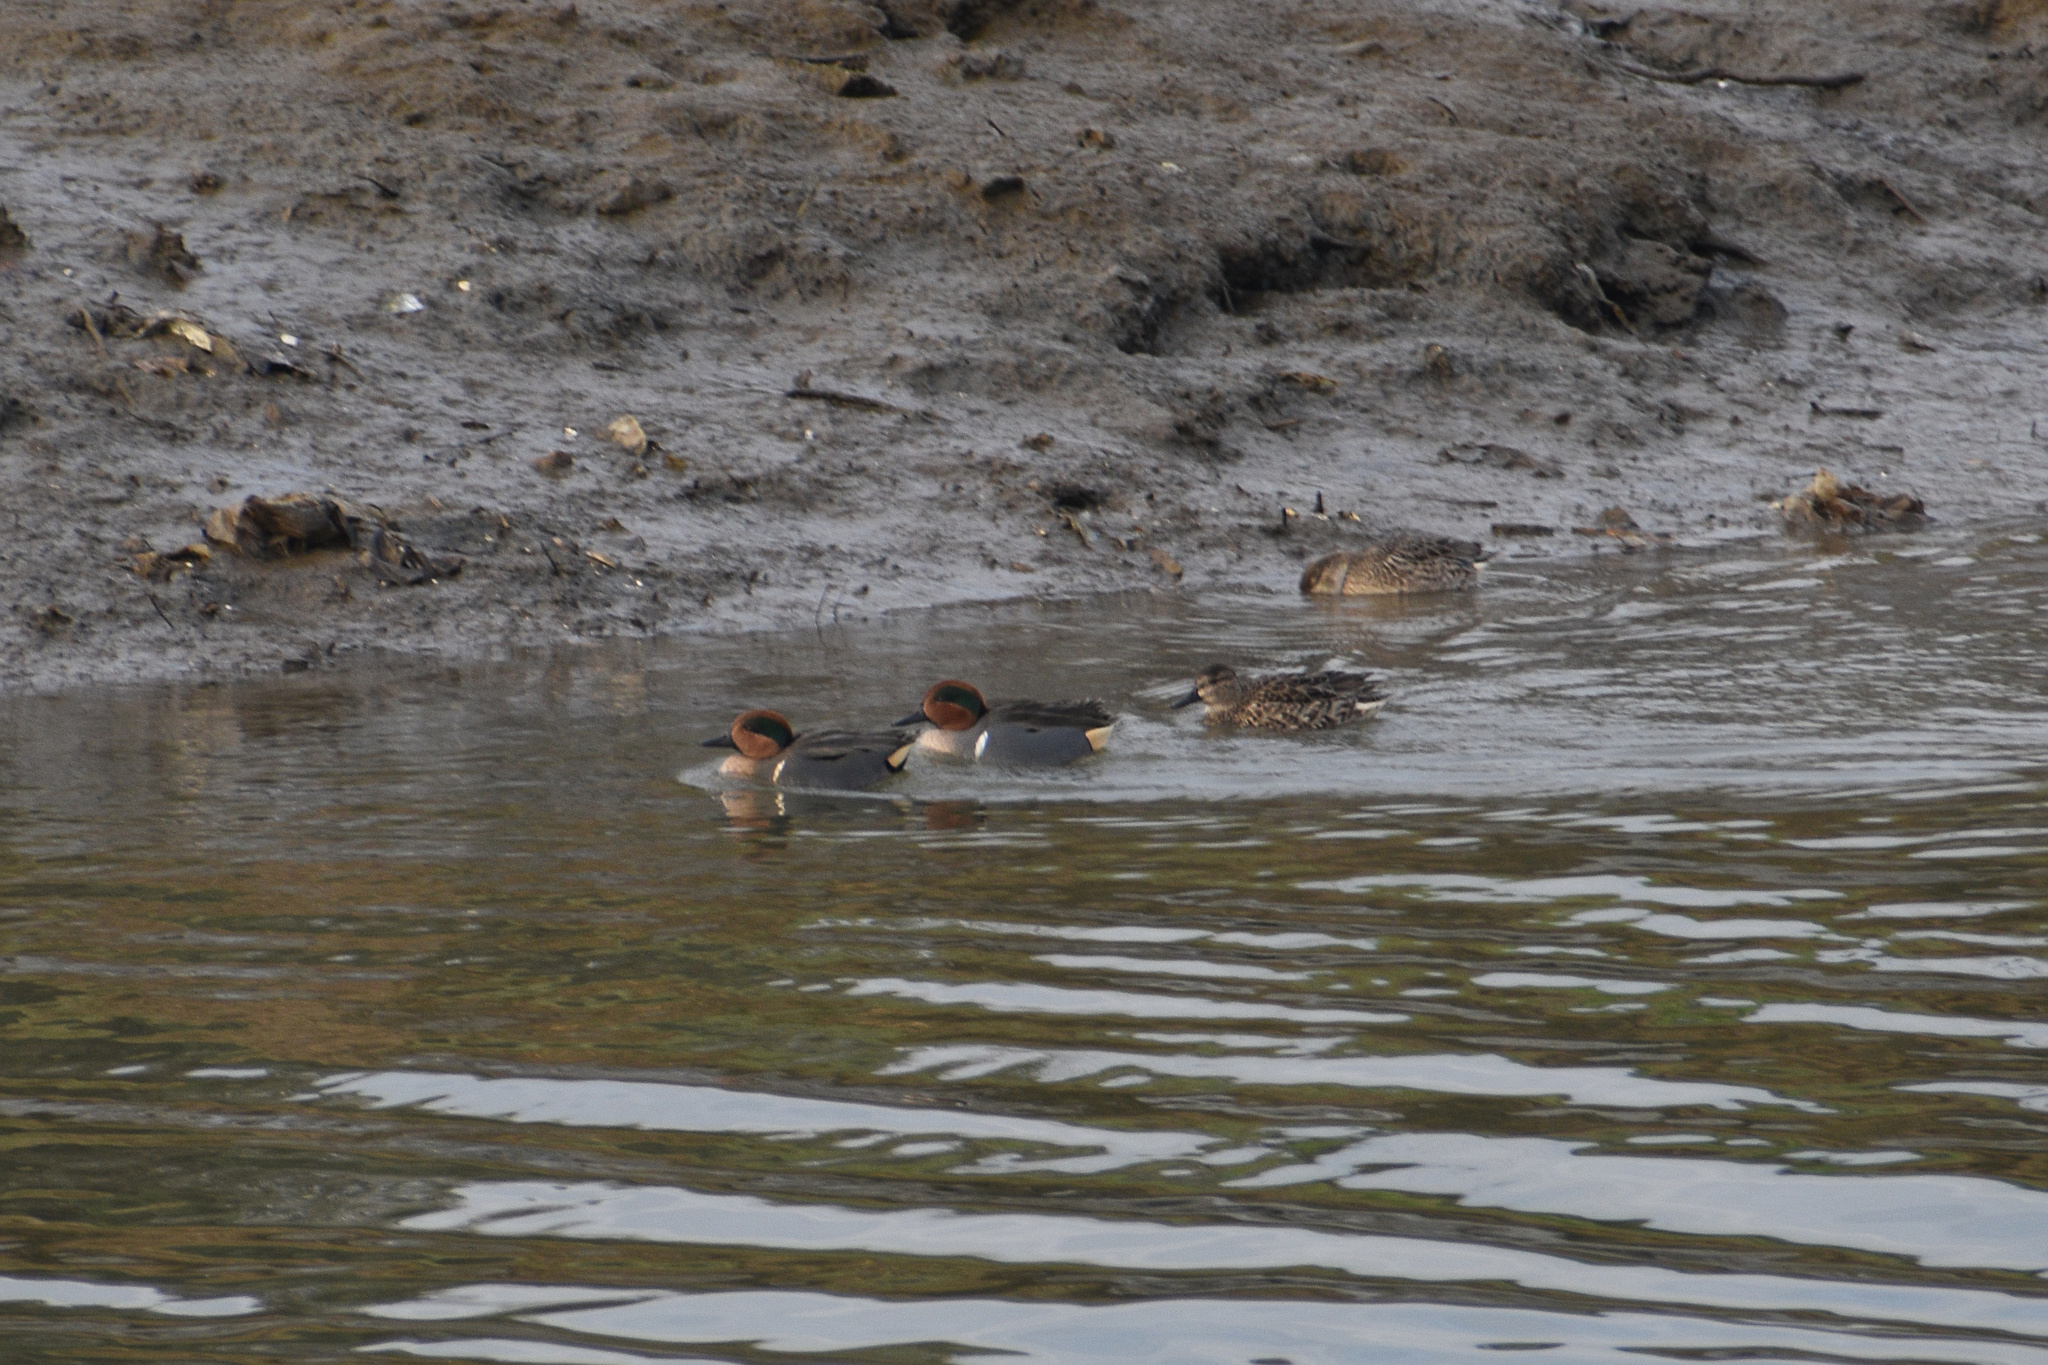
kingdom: Animalia
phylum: Chordata
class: Aves
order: Anseriformes
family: Anatidae
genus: Anas
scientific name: Anas crecca
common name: Eurasian teal
